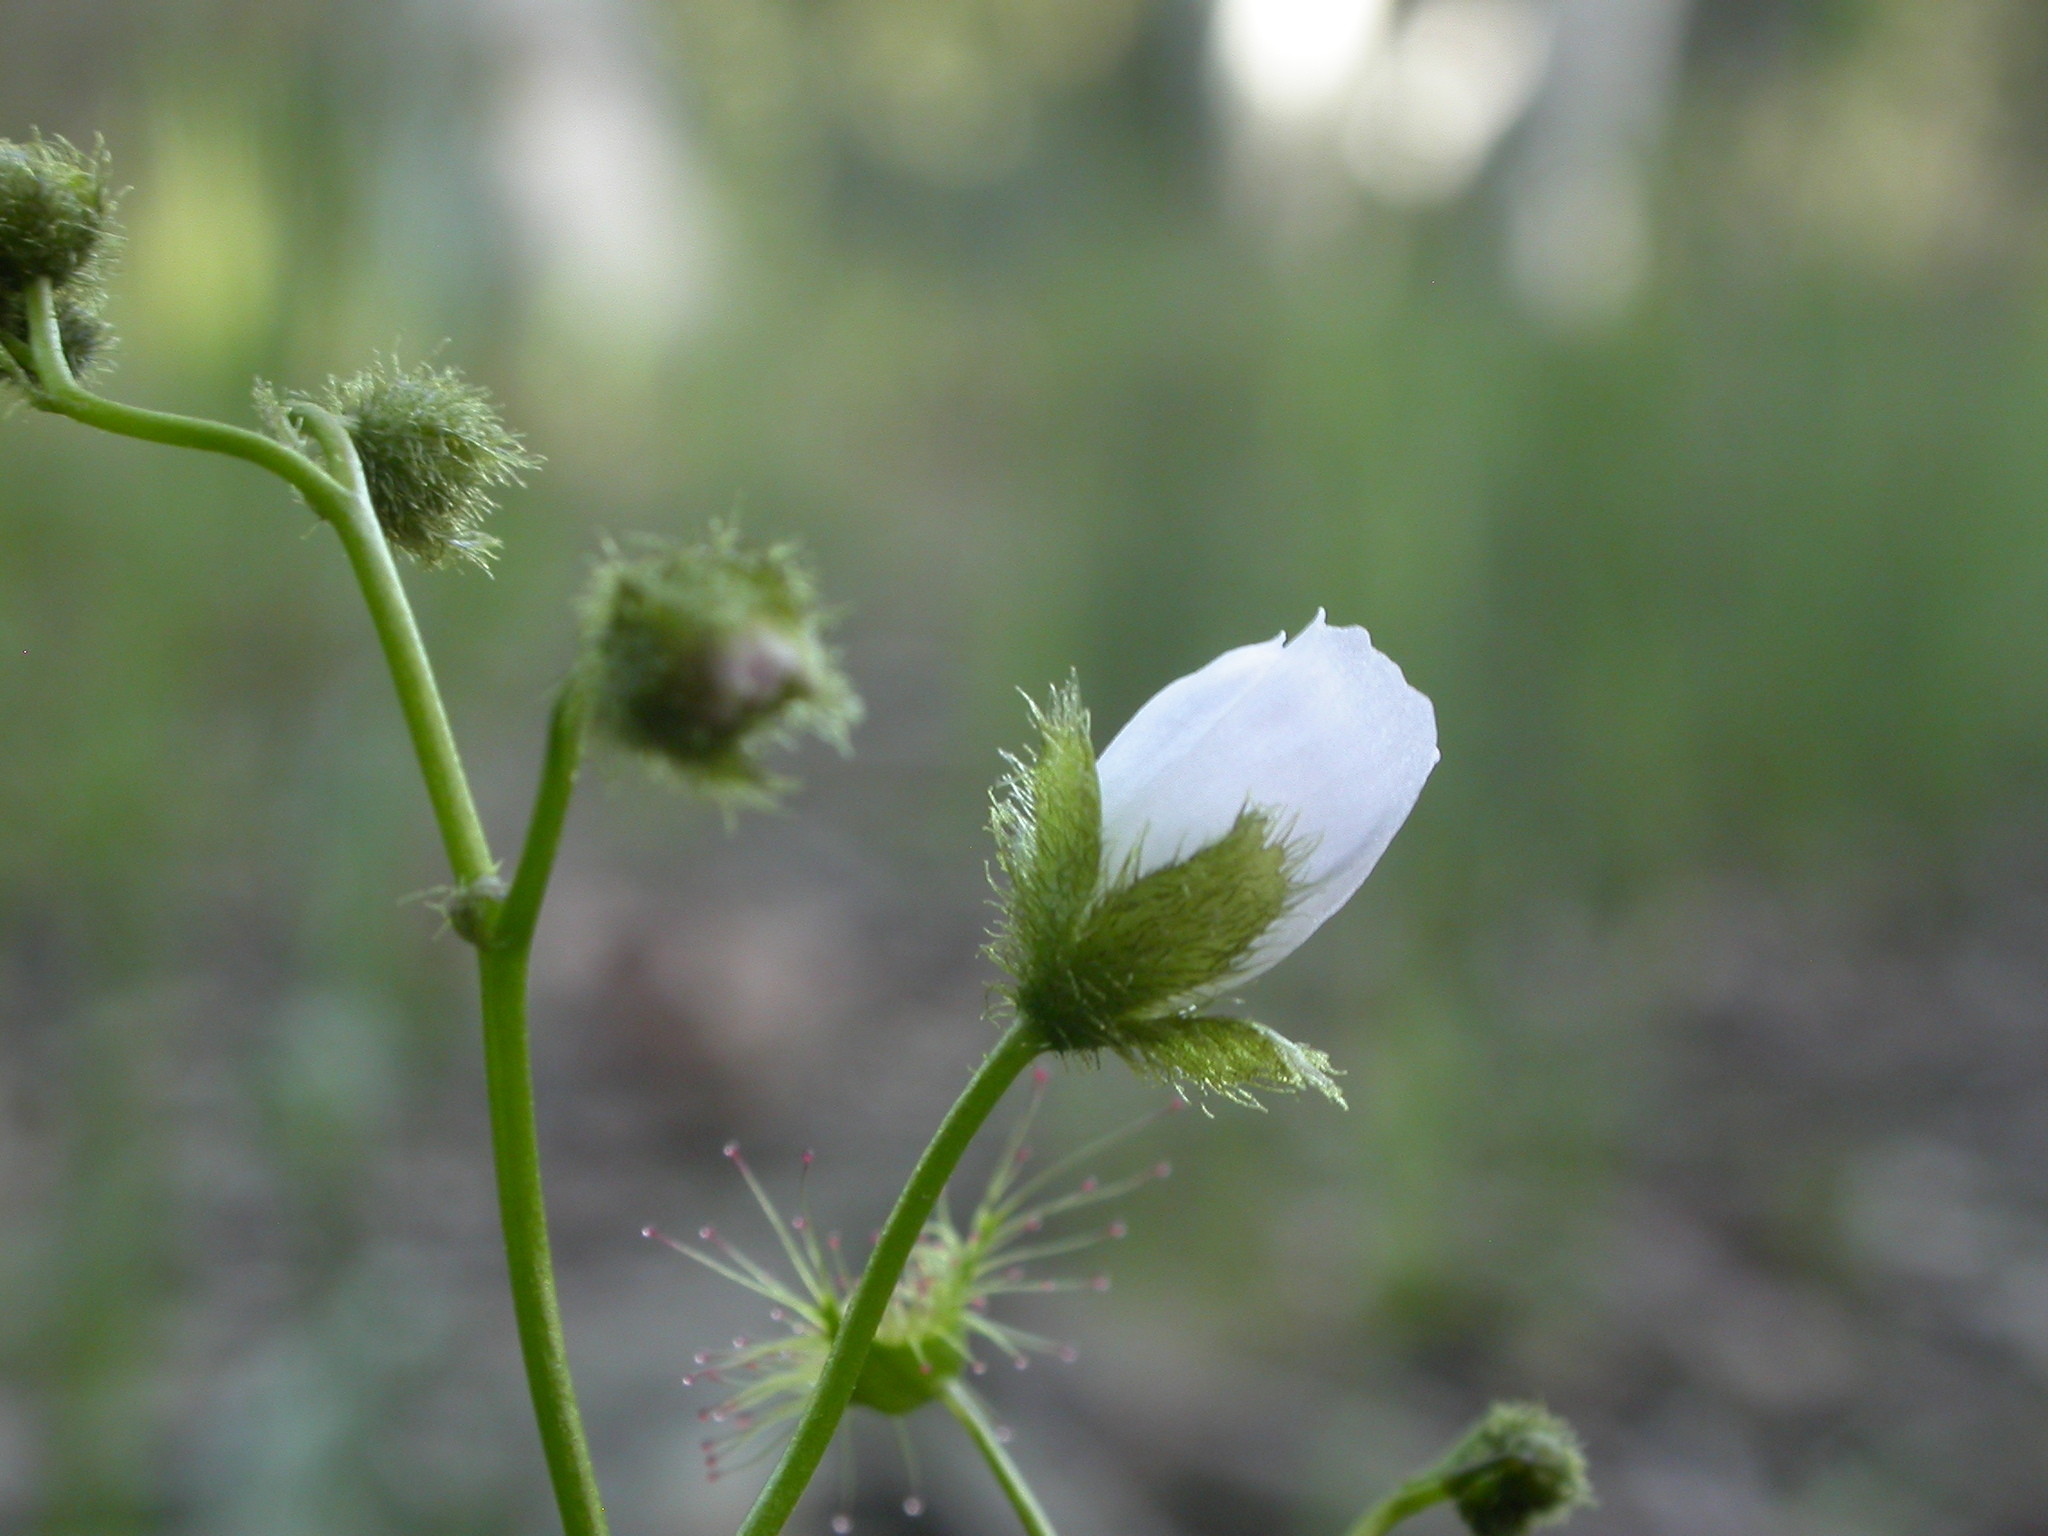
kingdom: Plantae
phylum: Tracheophyta
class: Magnoliopsida
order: Caryophyllales
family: Droseraceae
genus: Drosera
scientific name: Drosera gunniana
